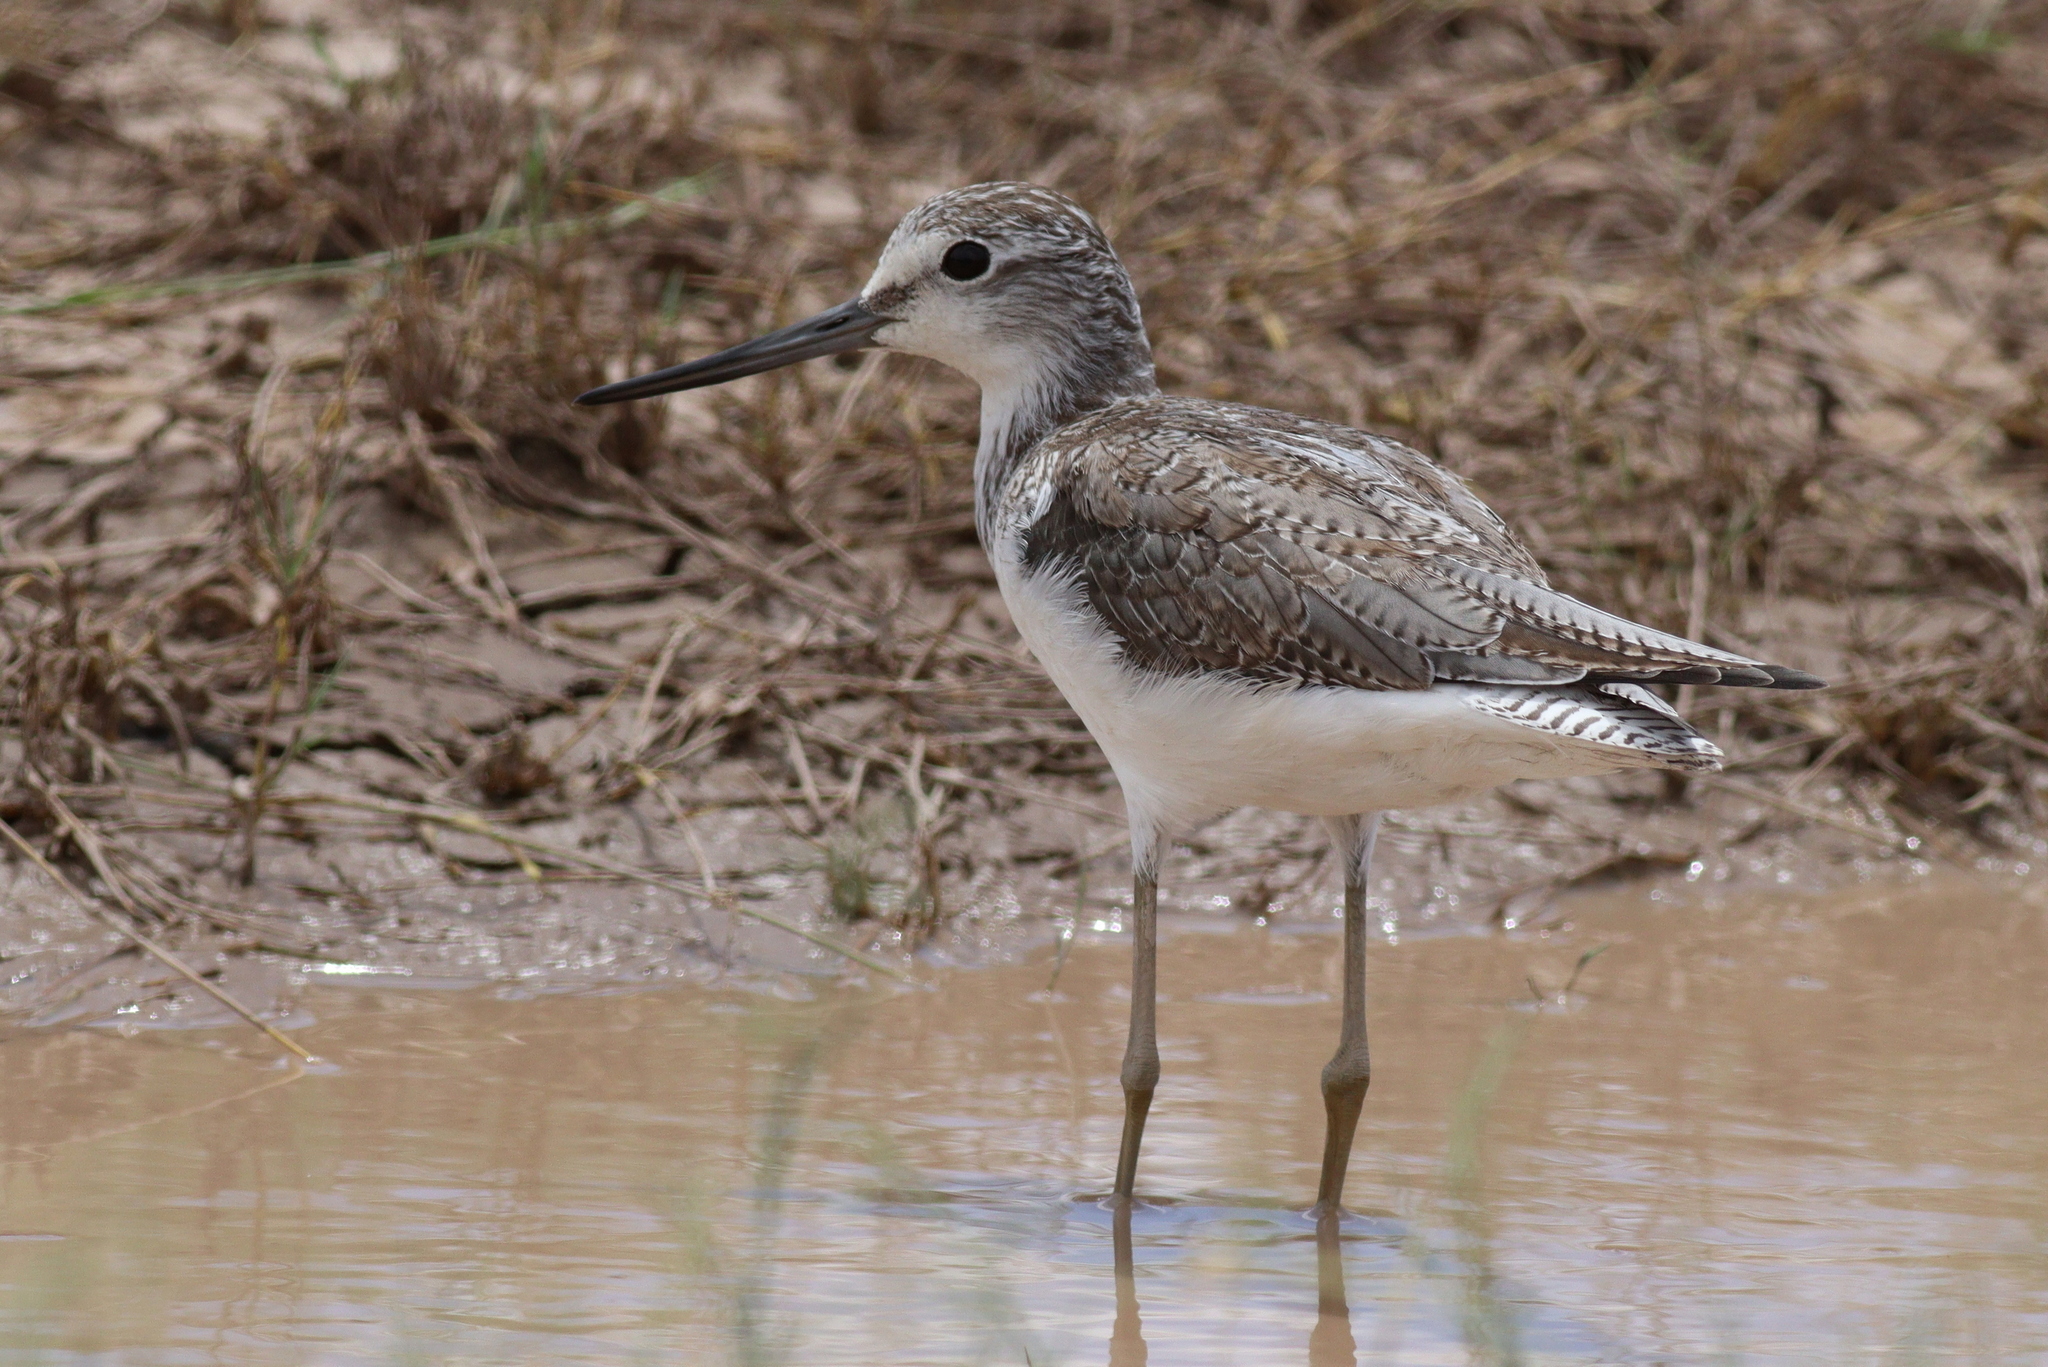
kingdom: Animalia
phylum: Chordata
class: Aves
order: Charadriiformes
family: Scolopacidae
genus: Tringa
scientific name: Tringa nebularia
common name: Common greenshank
